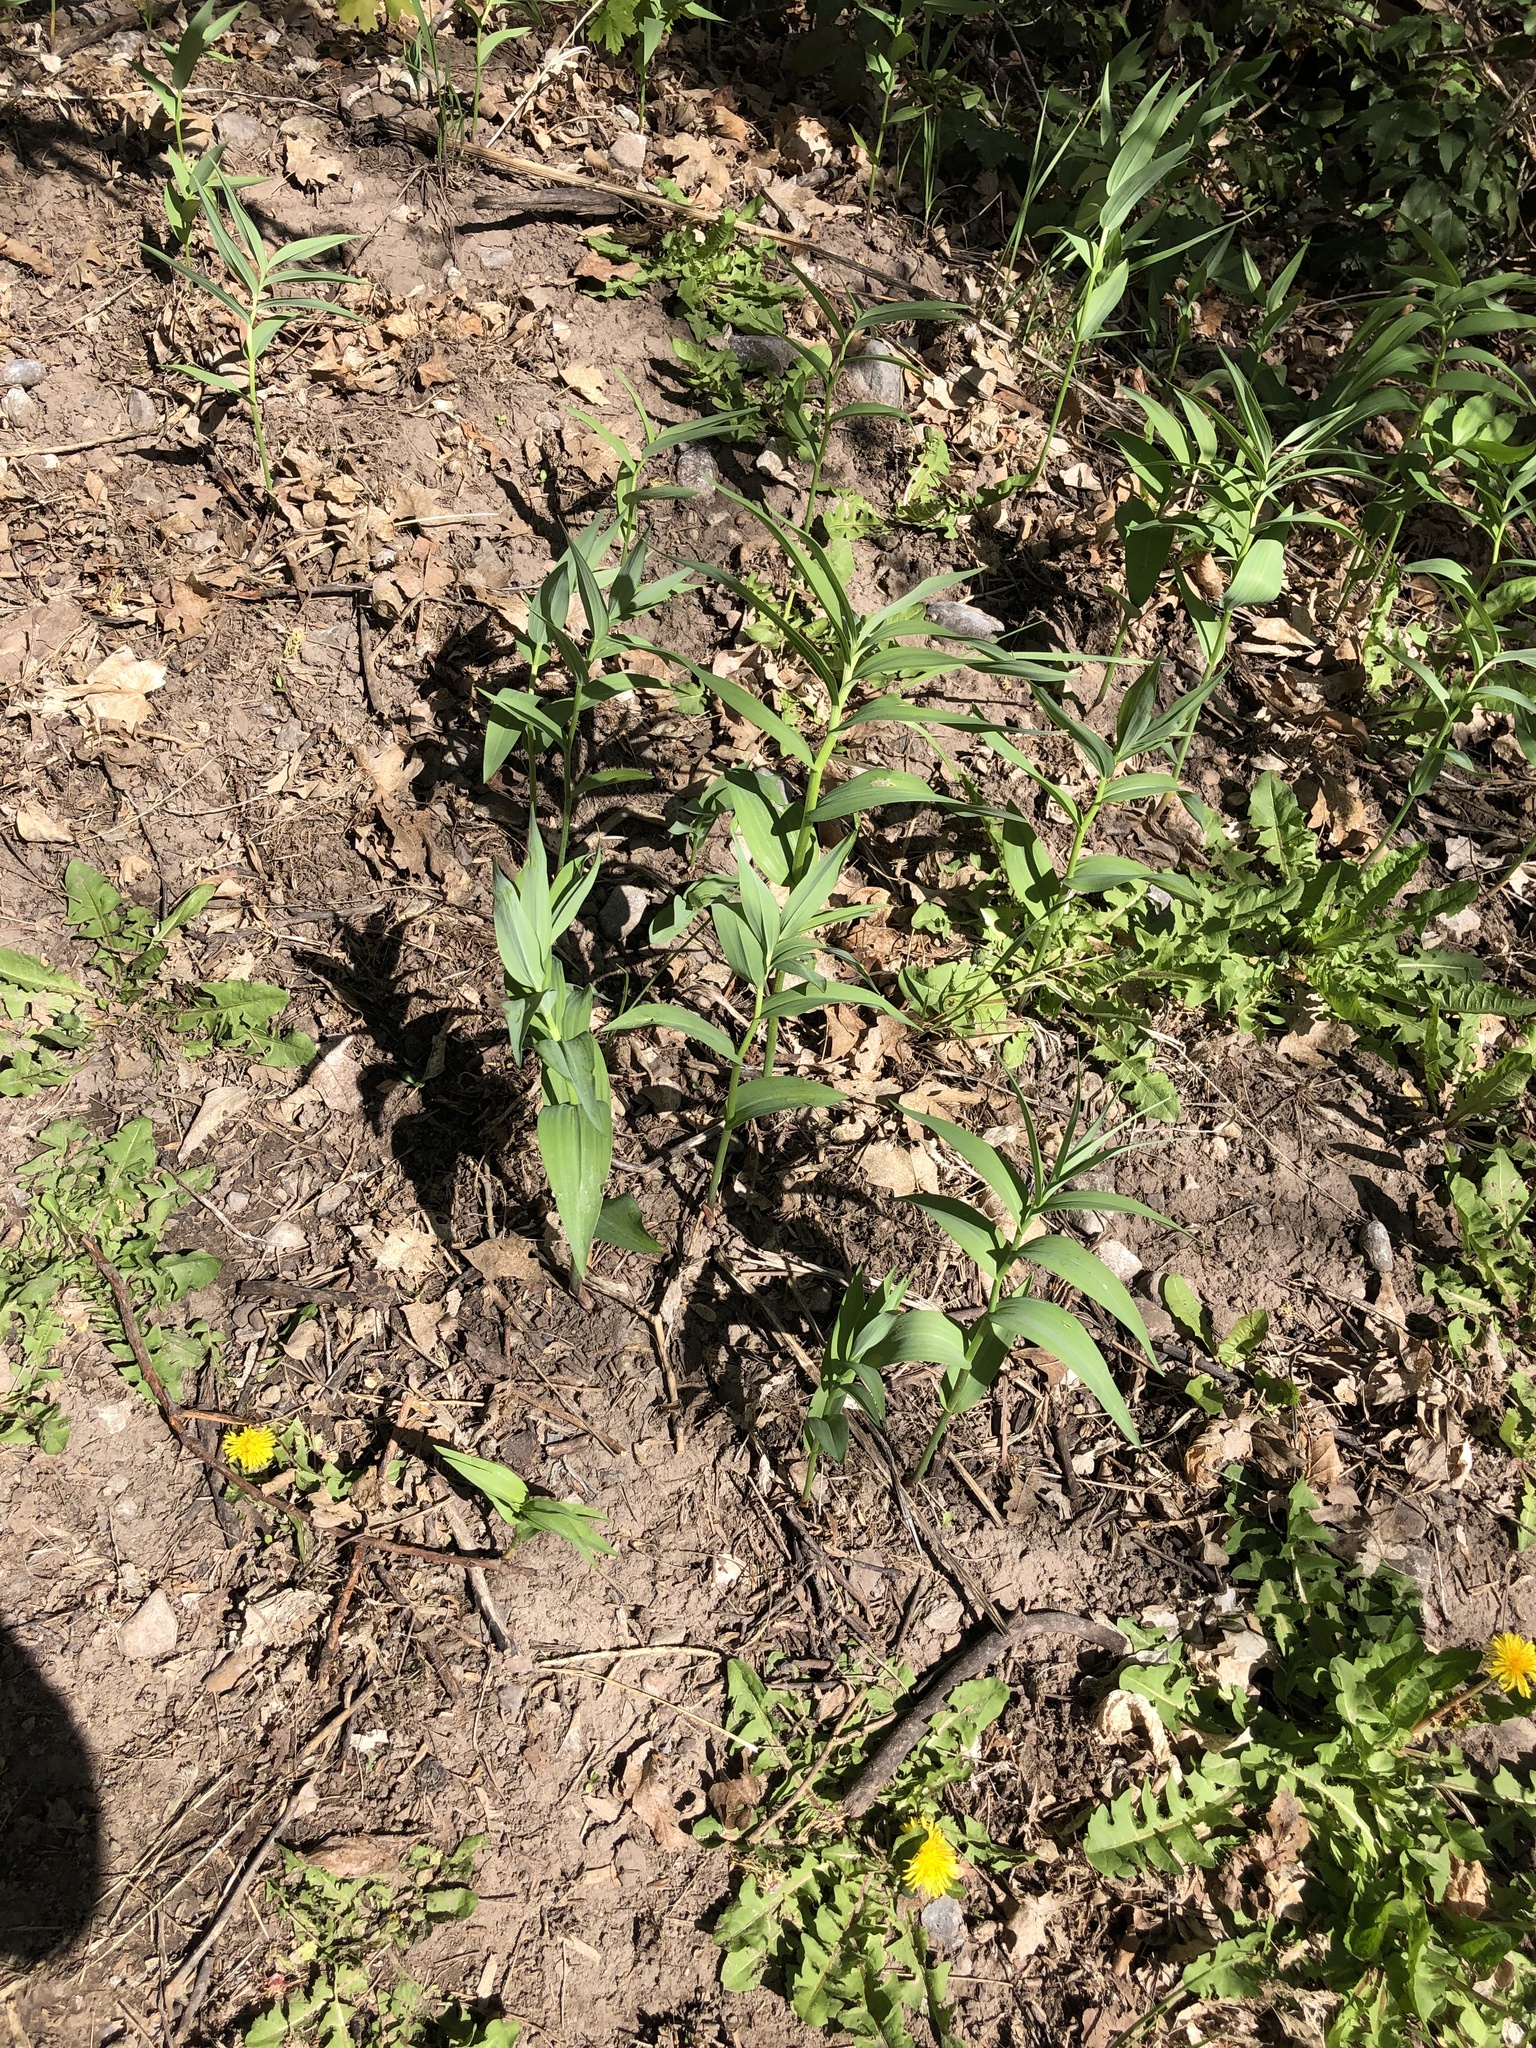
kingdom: Plantae
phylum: Tracheophyta
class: Liliopsida
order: Asparagales
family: Asparagaceae
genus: Maianthemum
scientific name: Maianthemum stellatum
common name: Little false solomon's seal
